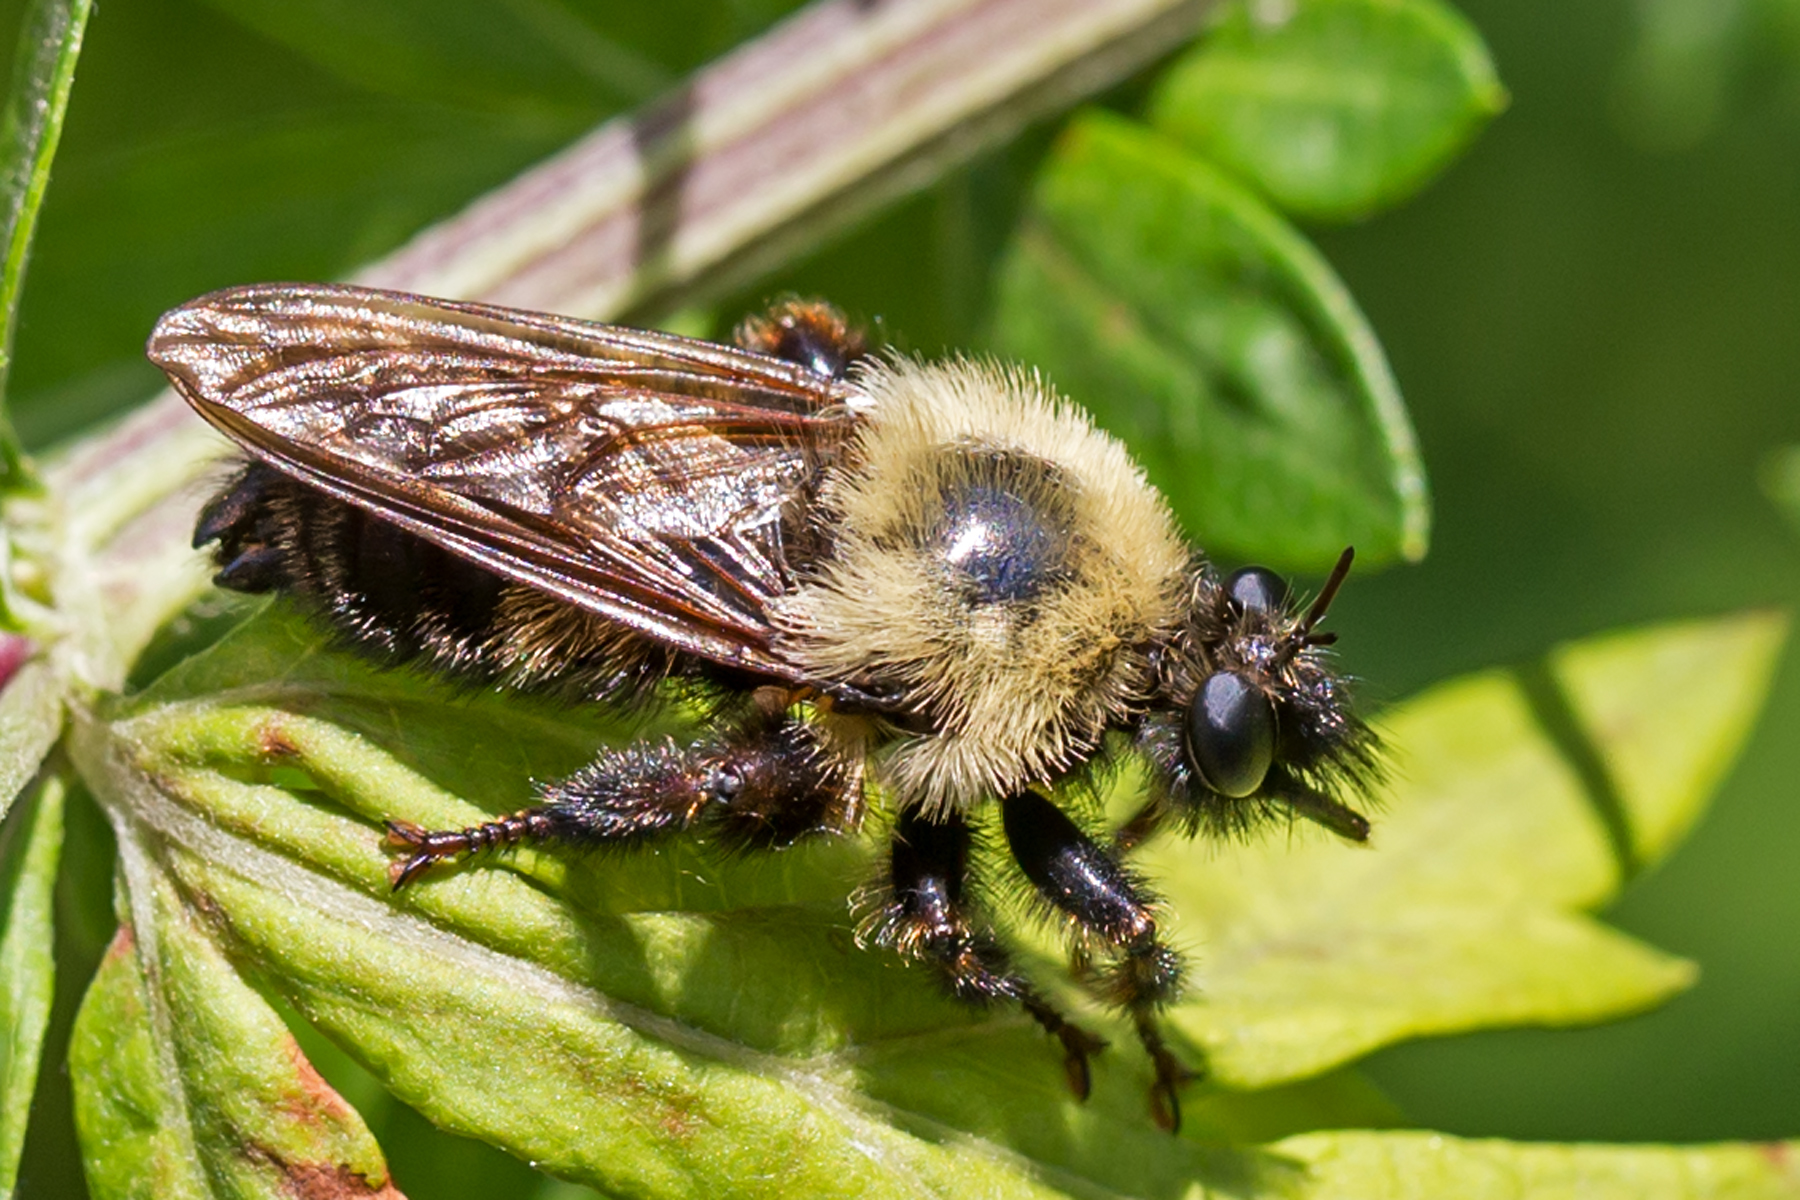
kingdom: Animalia
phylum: Arthropoda
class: Insecta
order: Diptera
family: Asilidae
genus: Laphria
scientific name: Laphria thoracica
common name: Bumble bee mimic robber fly
